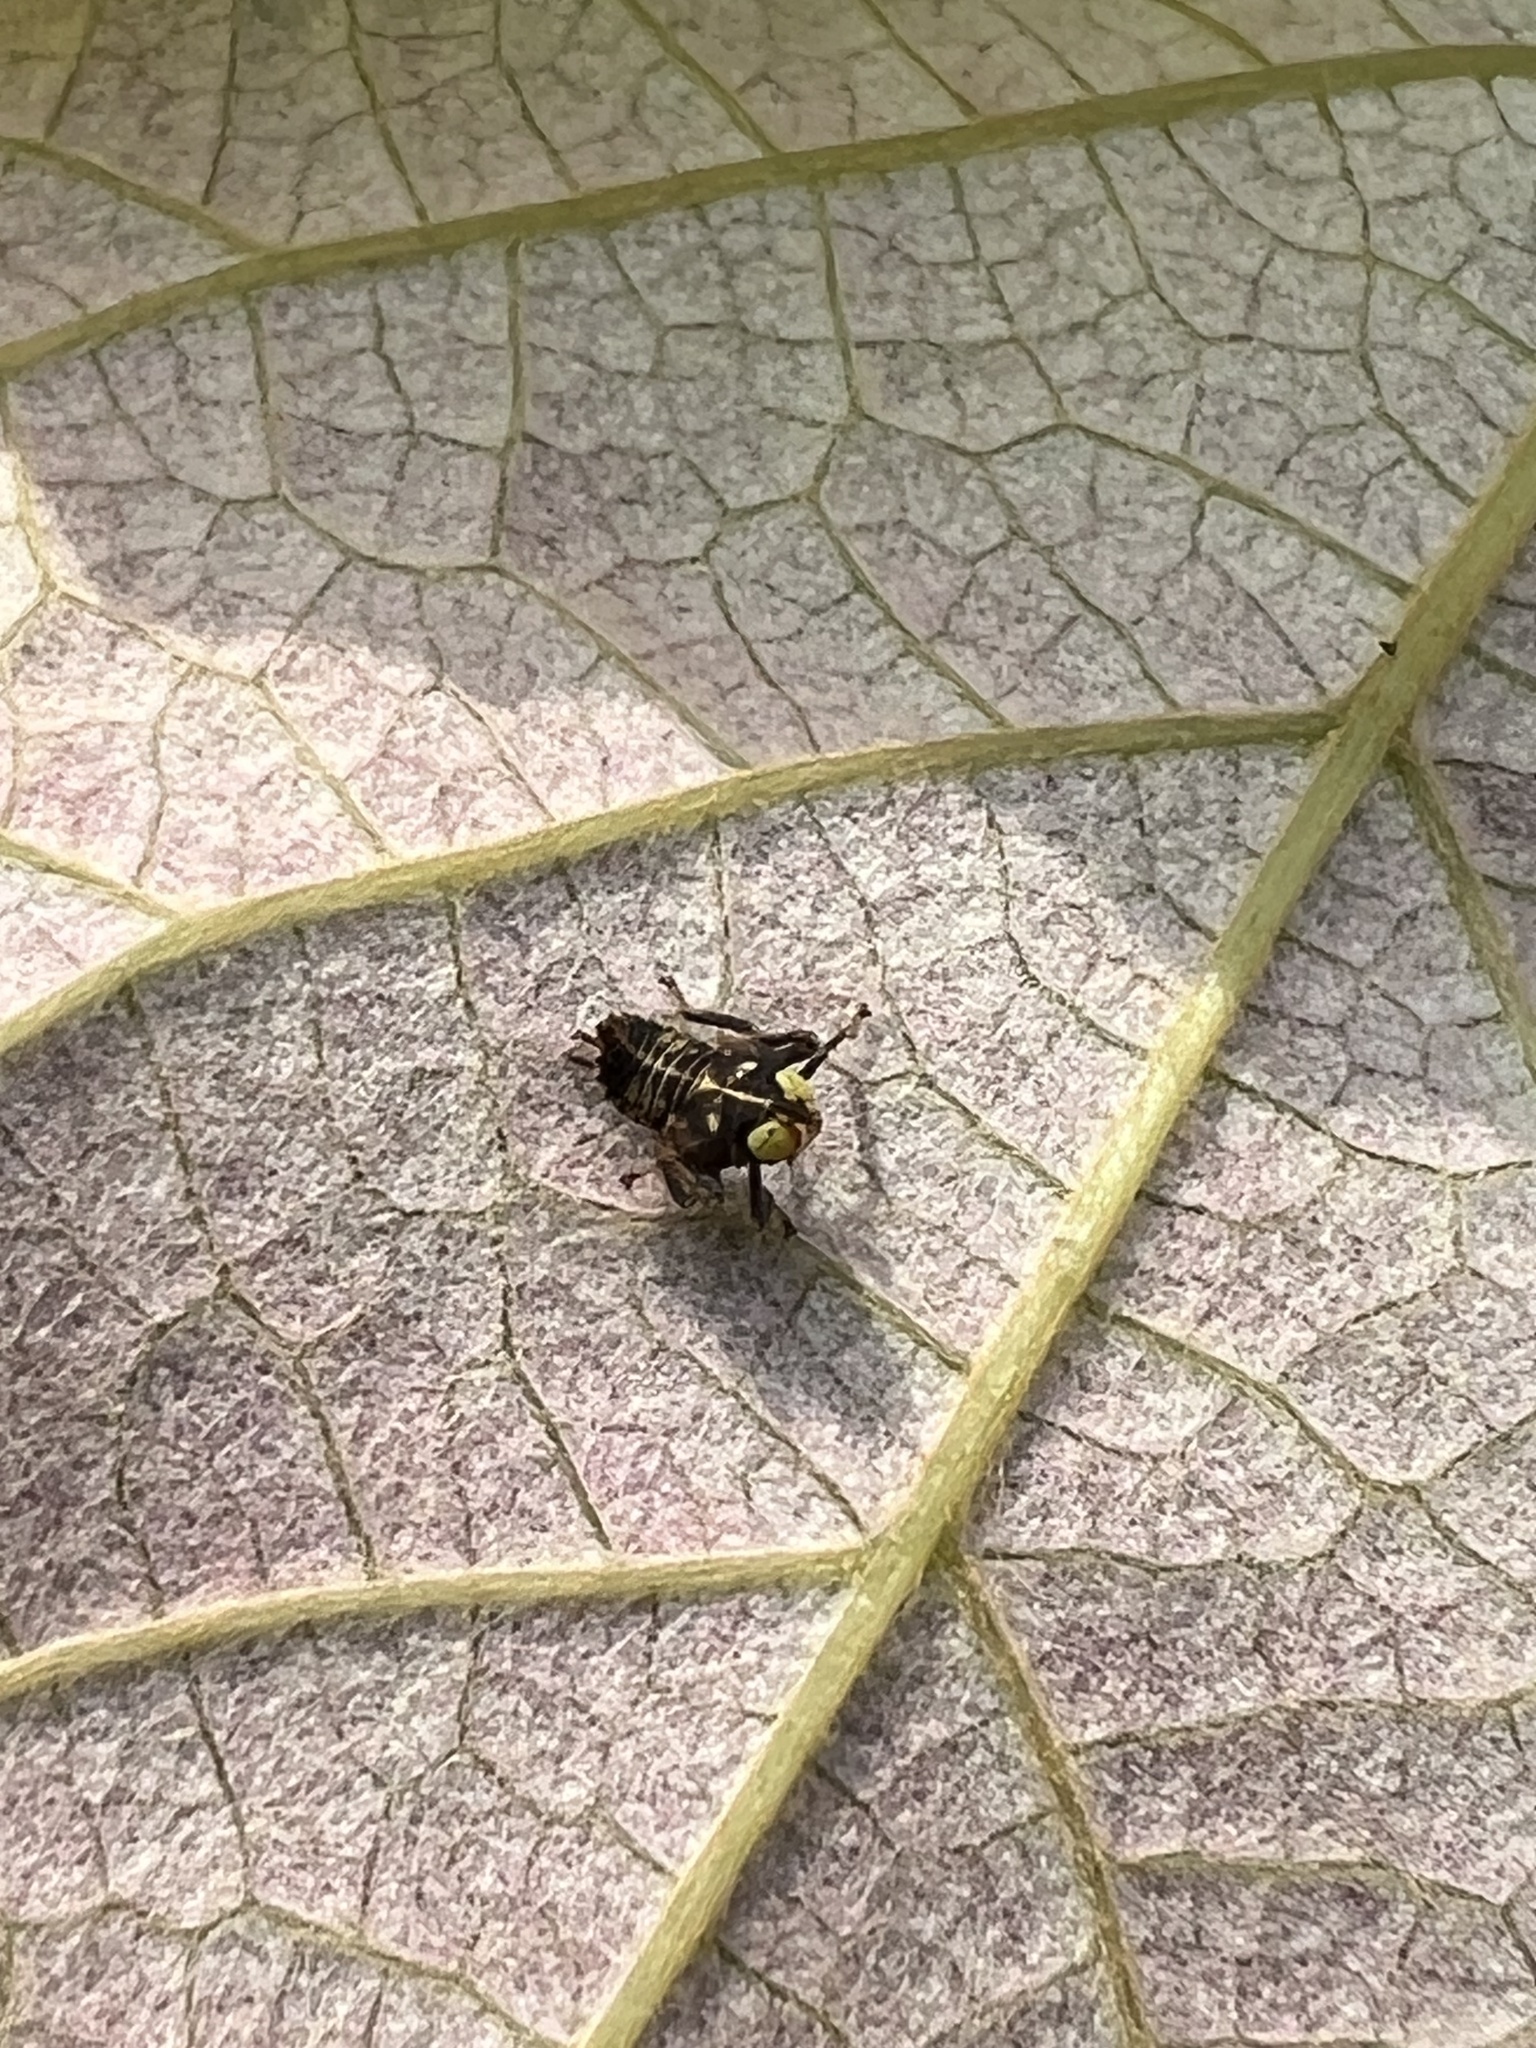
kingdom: Animalia
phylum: Arthropoda
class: Insecta
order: Hemiptera
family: Cicadellidae
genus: Jikradia
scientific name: Jikradia olitoria
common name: Coppery leafhopper
